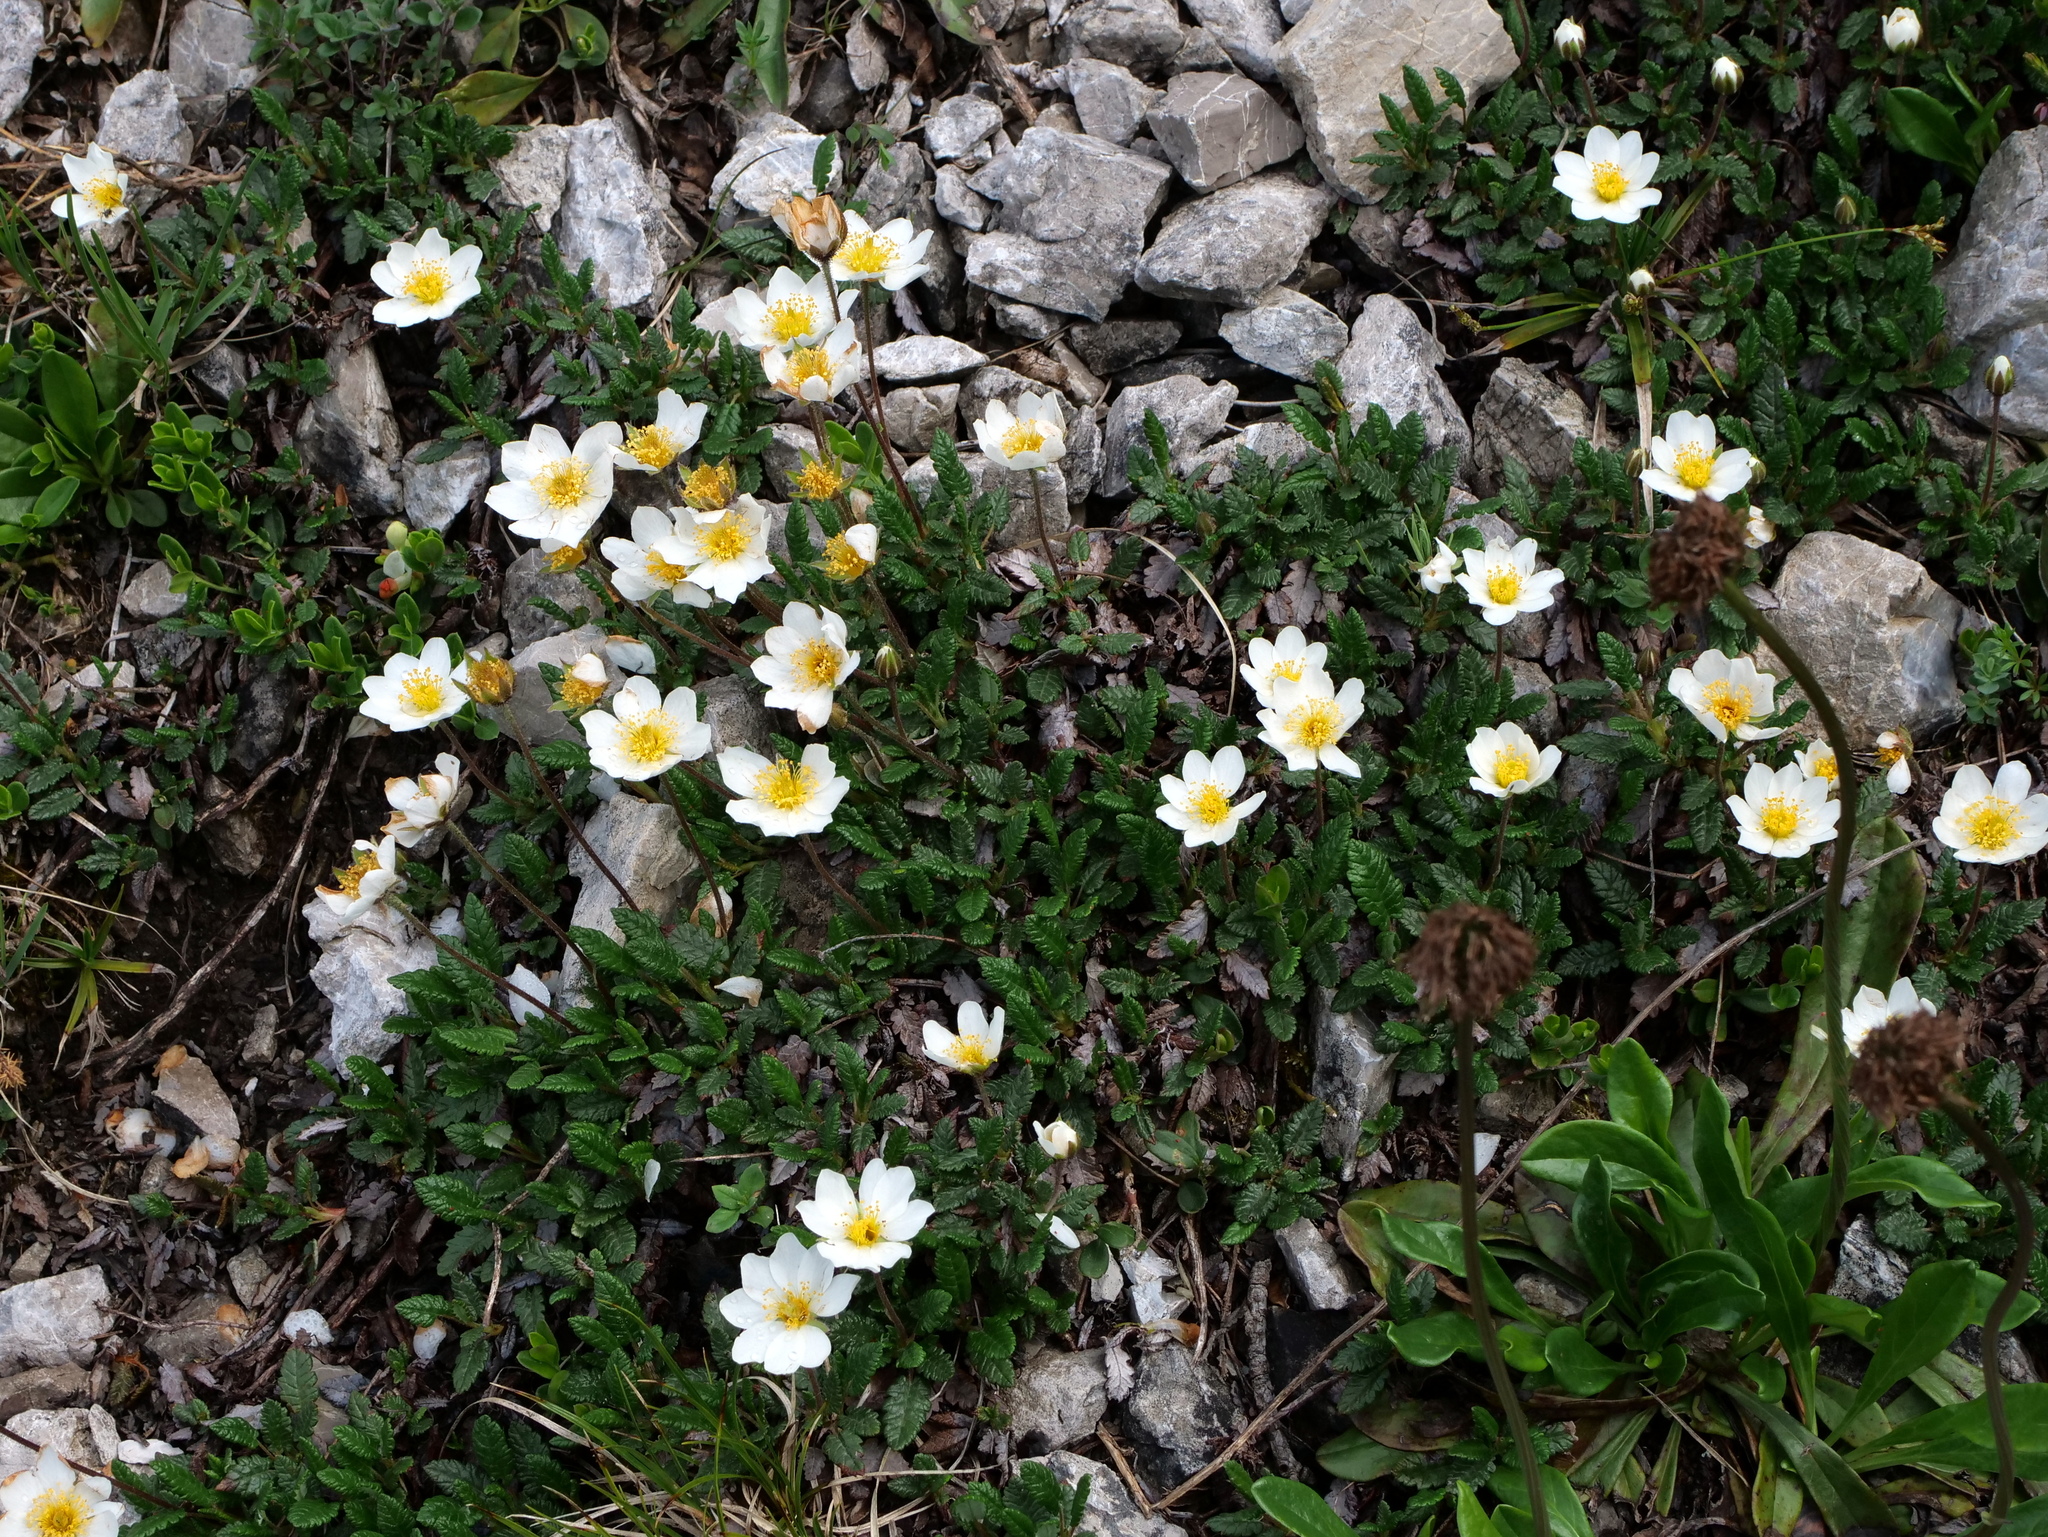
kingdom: Plantae
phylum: Tracheophyta
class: Magnoliopsida
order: Rosales
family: Rosaceae
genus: Dryas
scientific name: Dryas octopetala
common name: Eight-petal mountain-avens
